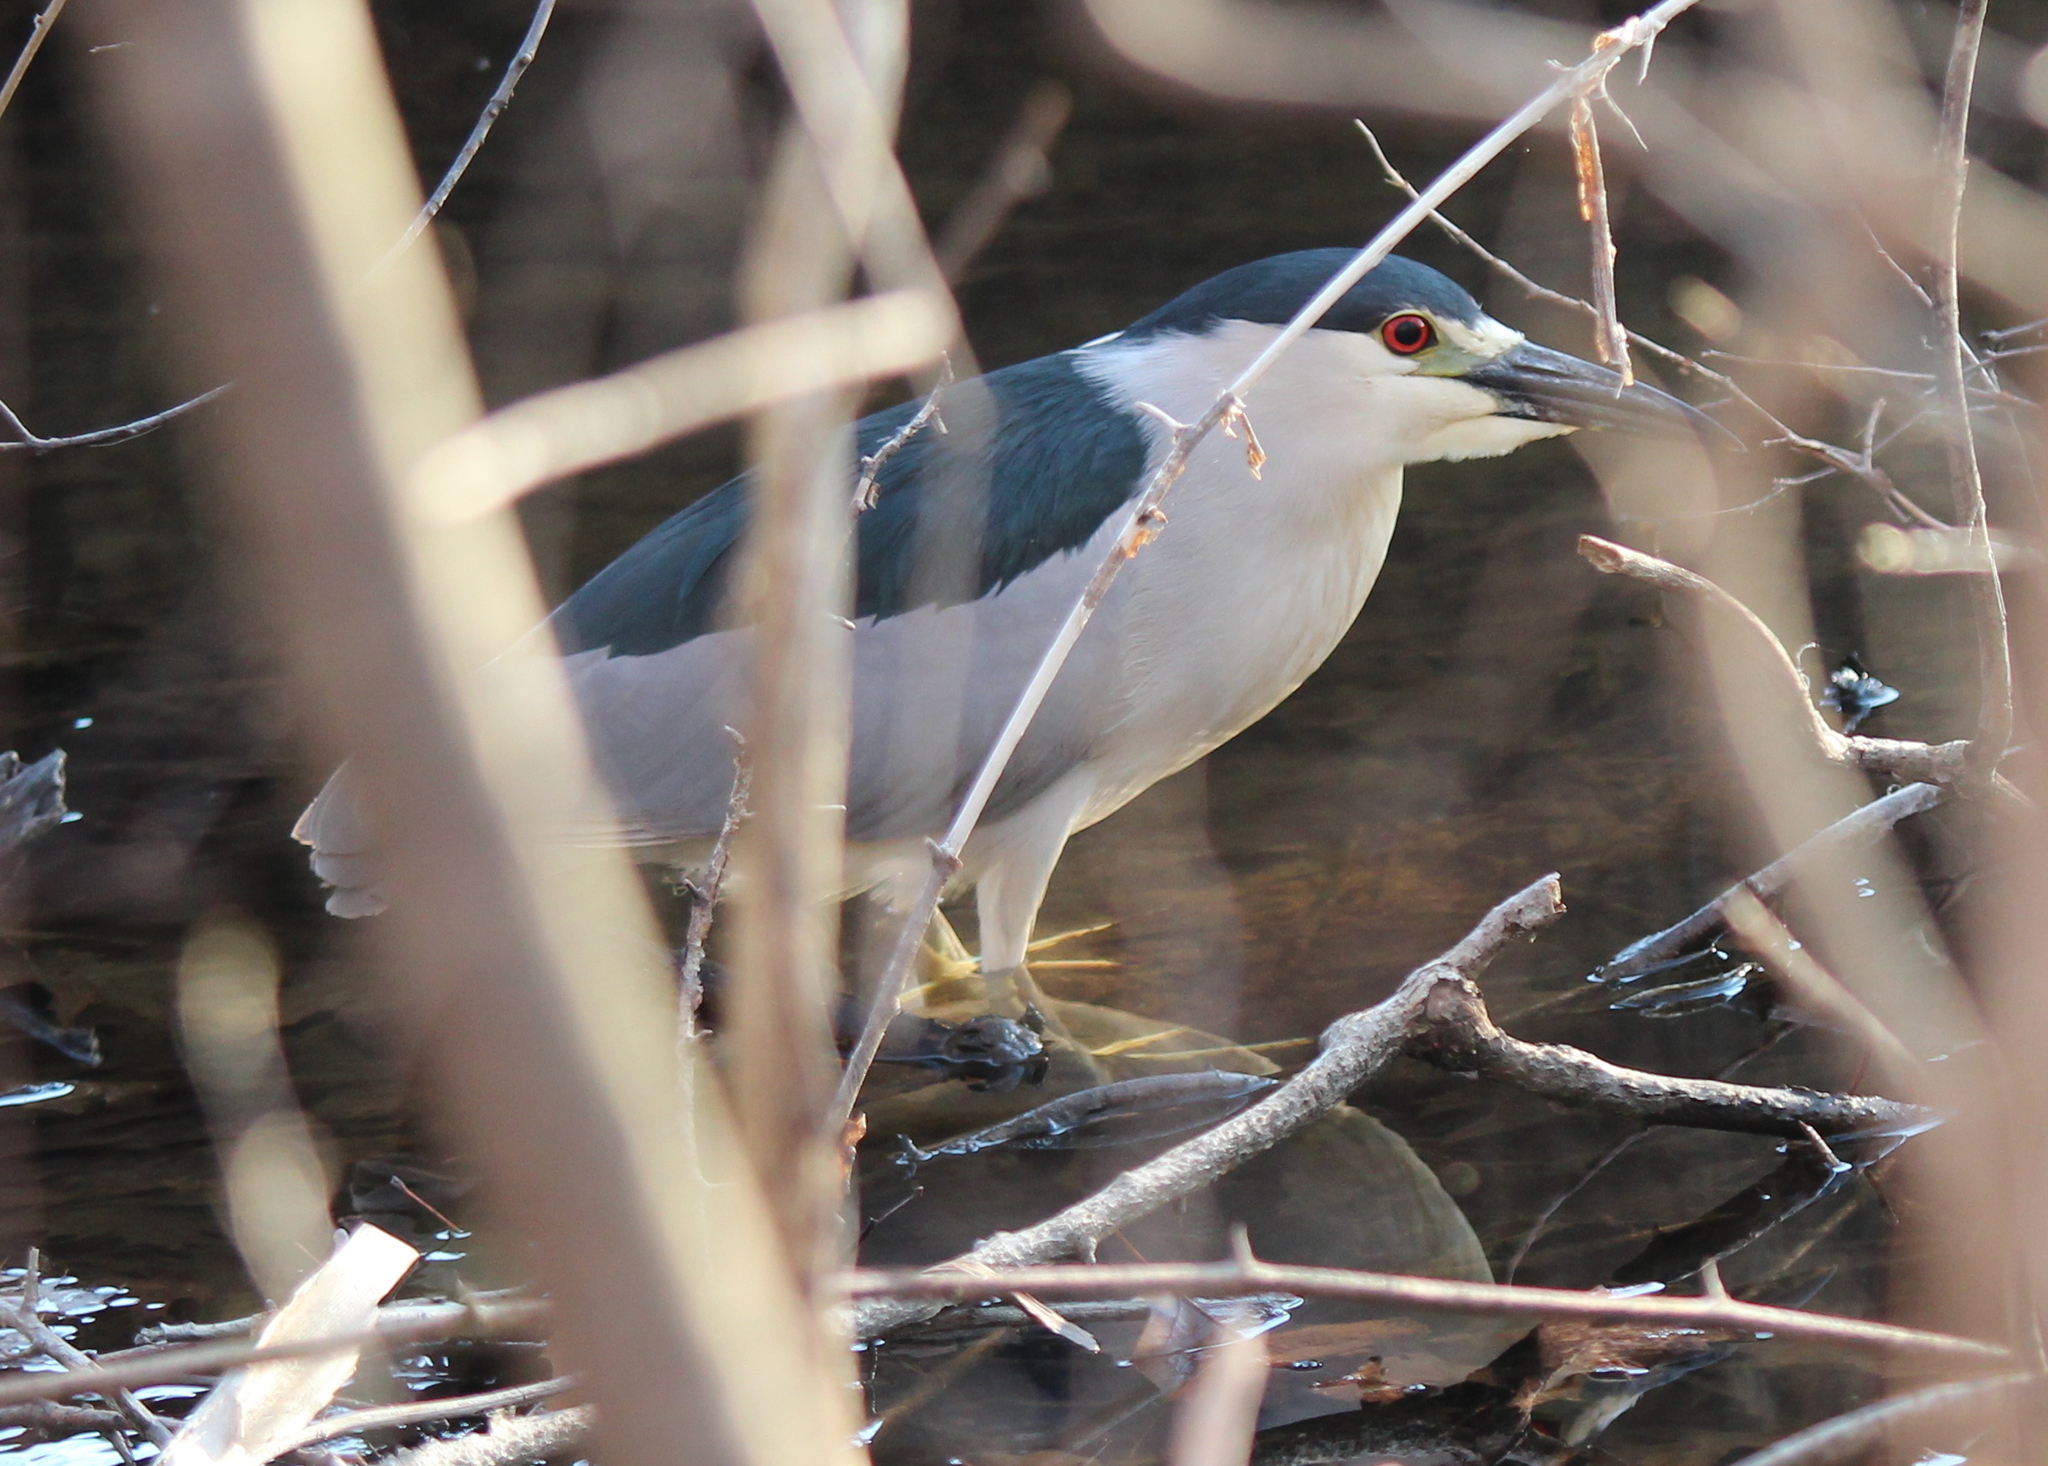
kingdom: Animalia
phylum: Chordata
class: Aves
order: Pelecaniformes
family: Ardeidae
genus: Nycticorax
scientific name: Nycticorax nycticorax
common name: Black-crowned night heron
